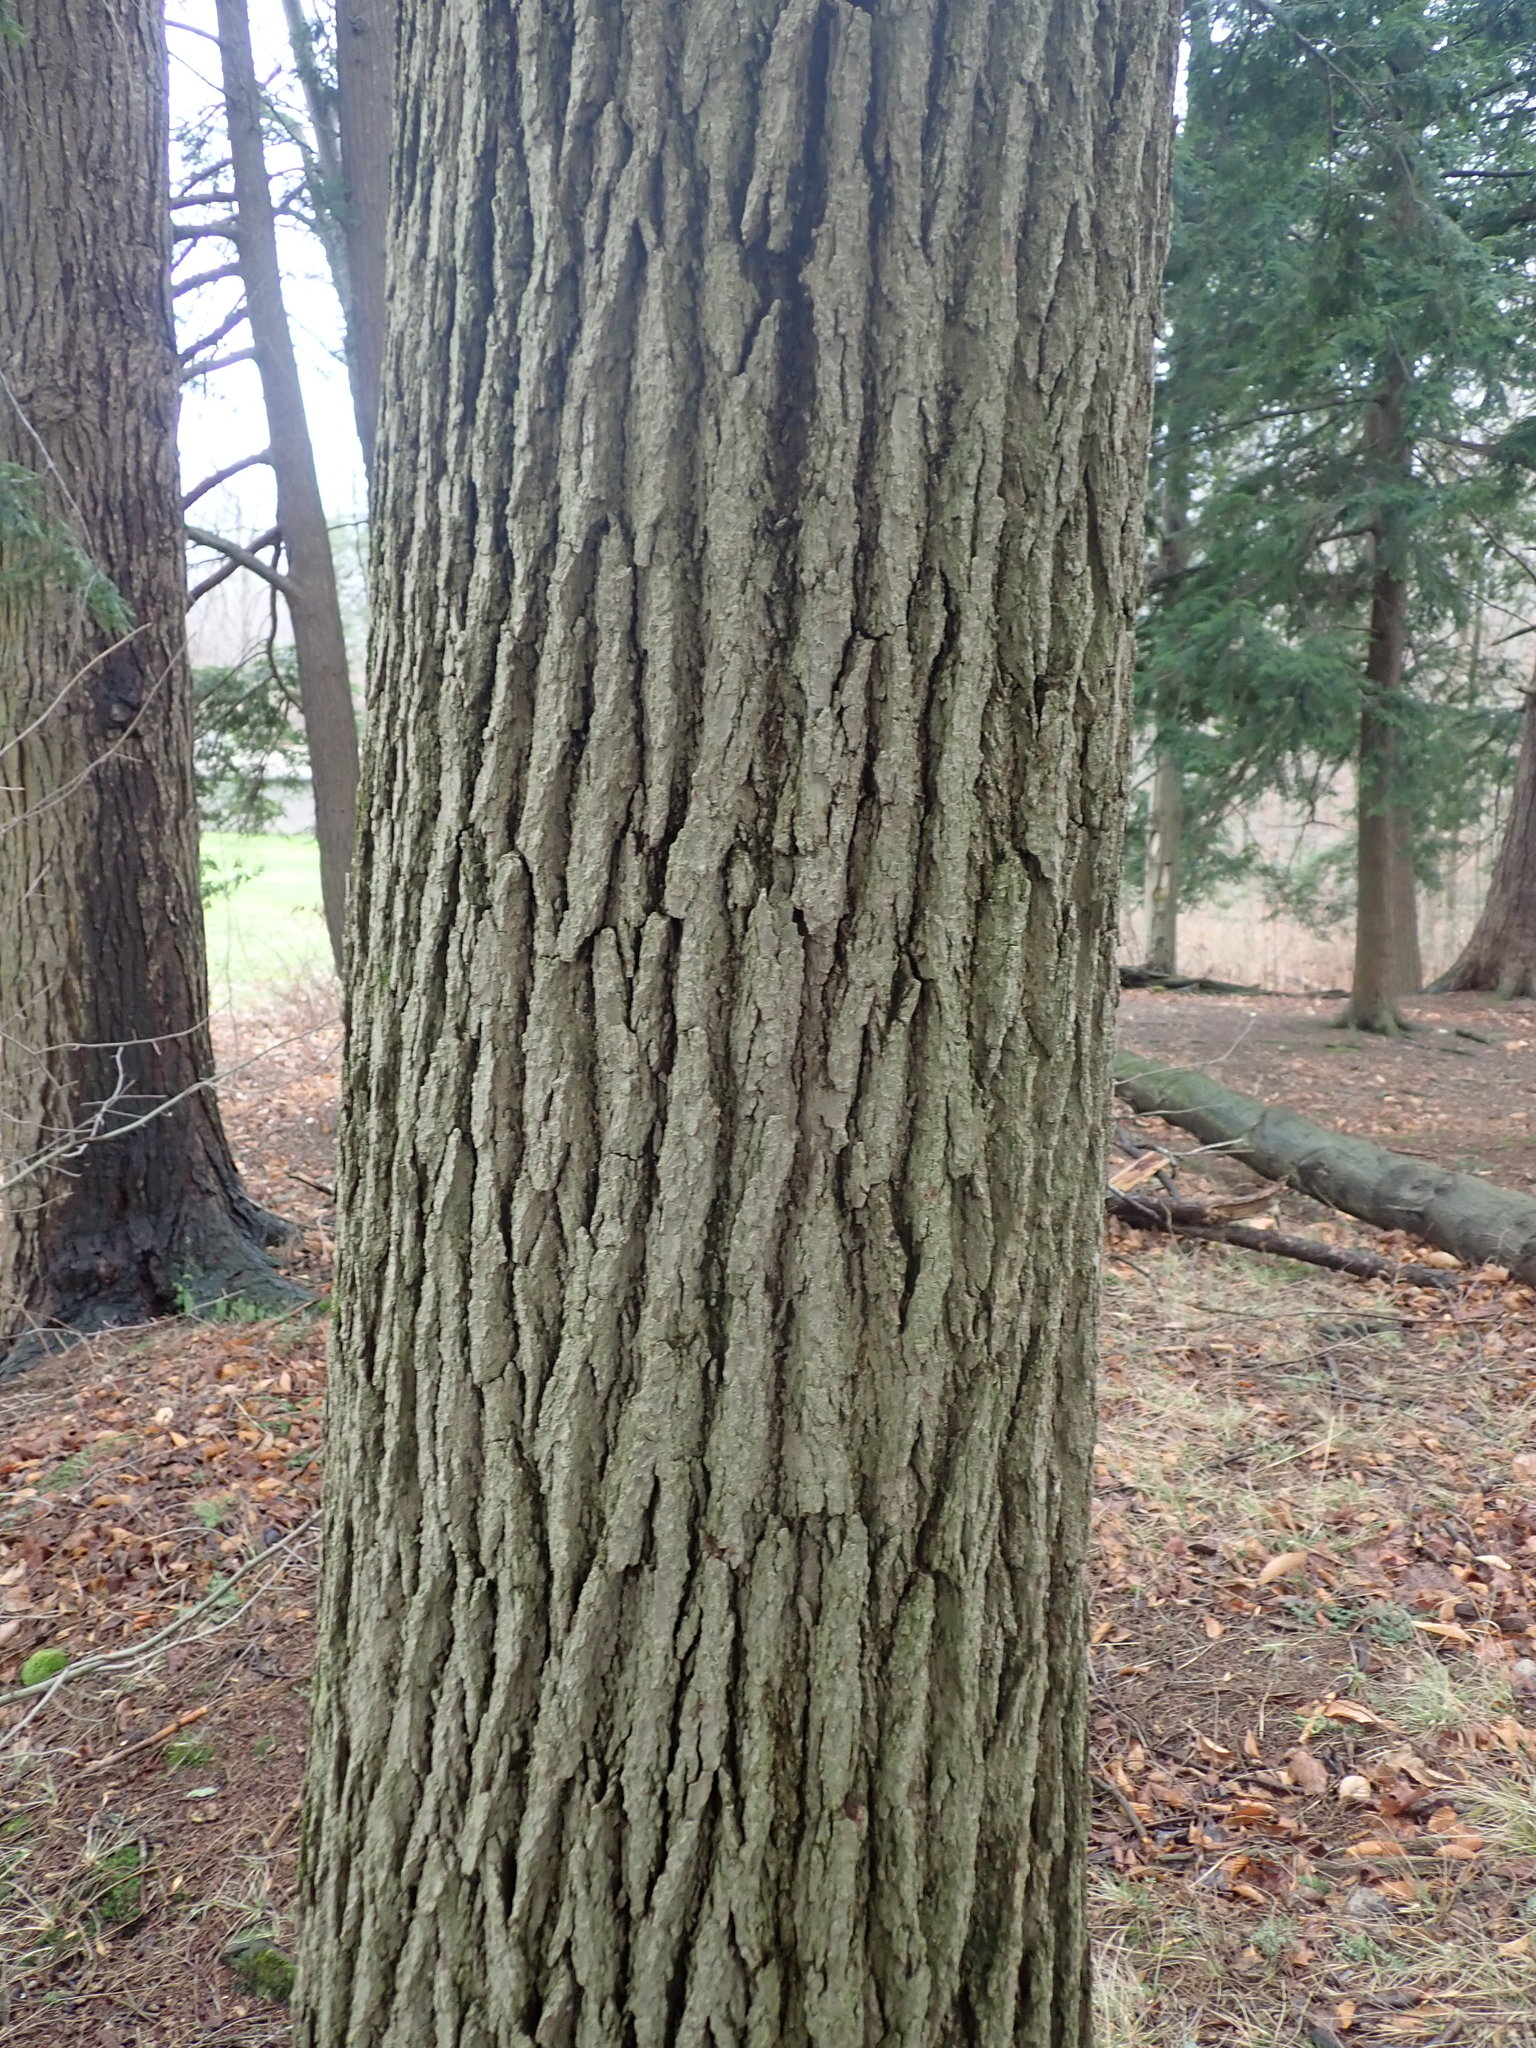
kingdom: Plantae
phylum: Tracheophyta
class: Pinopsida
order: Pinales
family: Pinaceae
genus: Tsuga
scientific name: Tsuga canadensis
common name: Eastern hemlock
